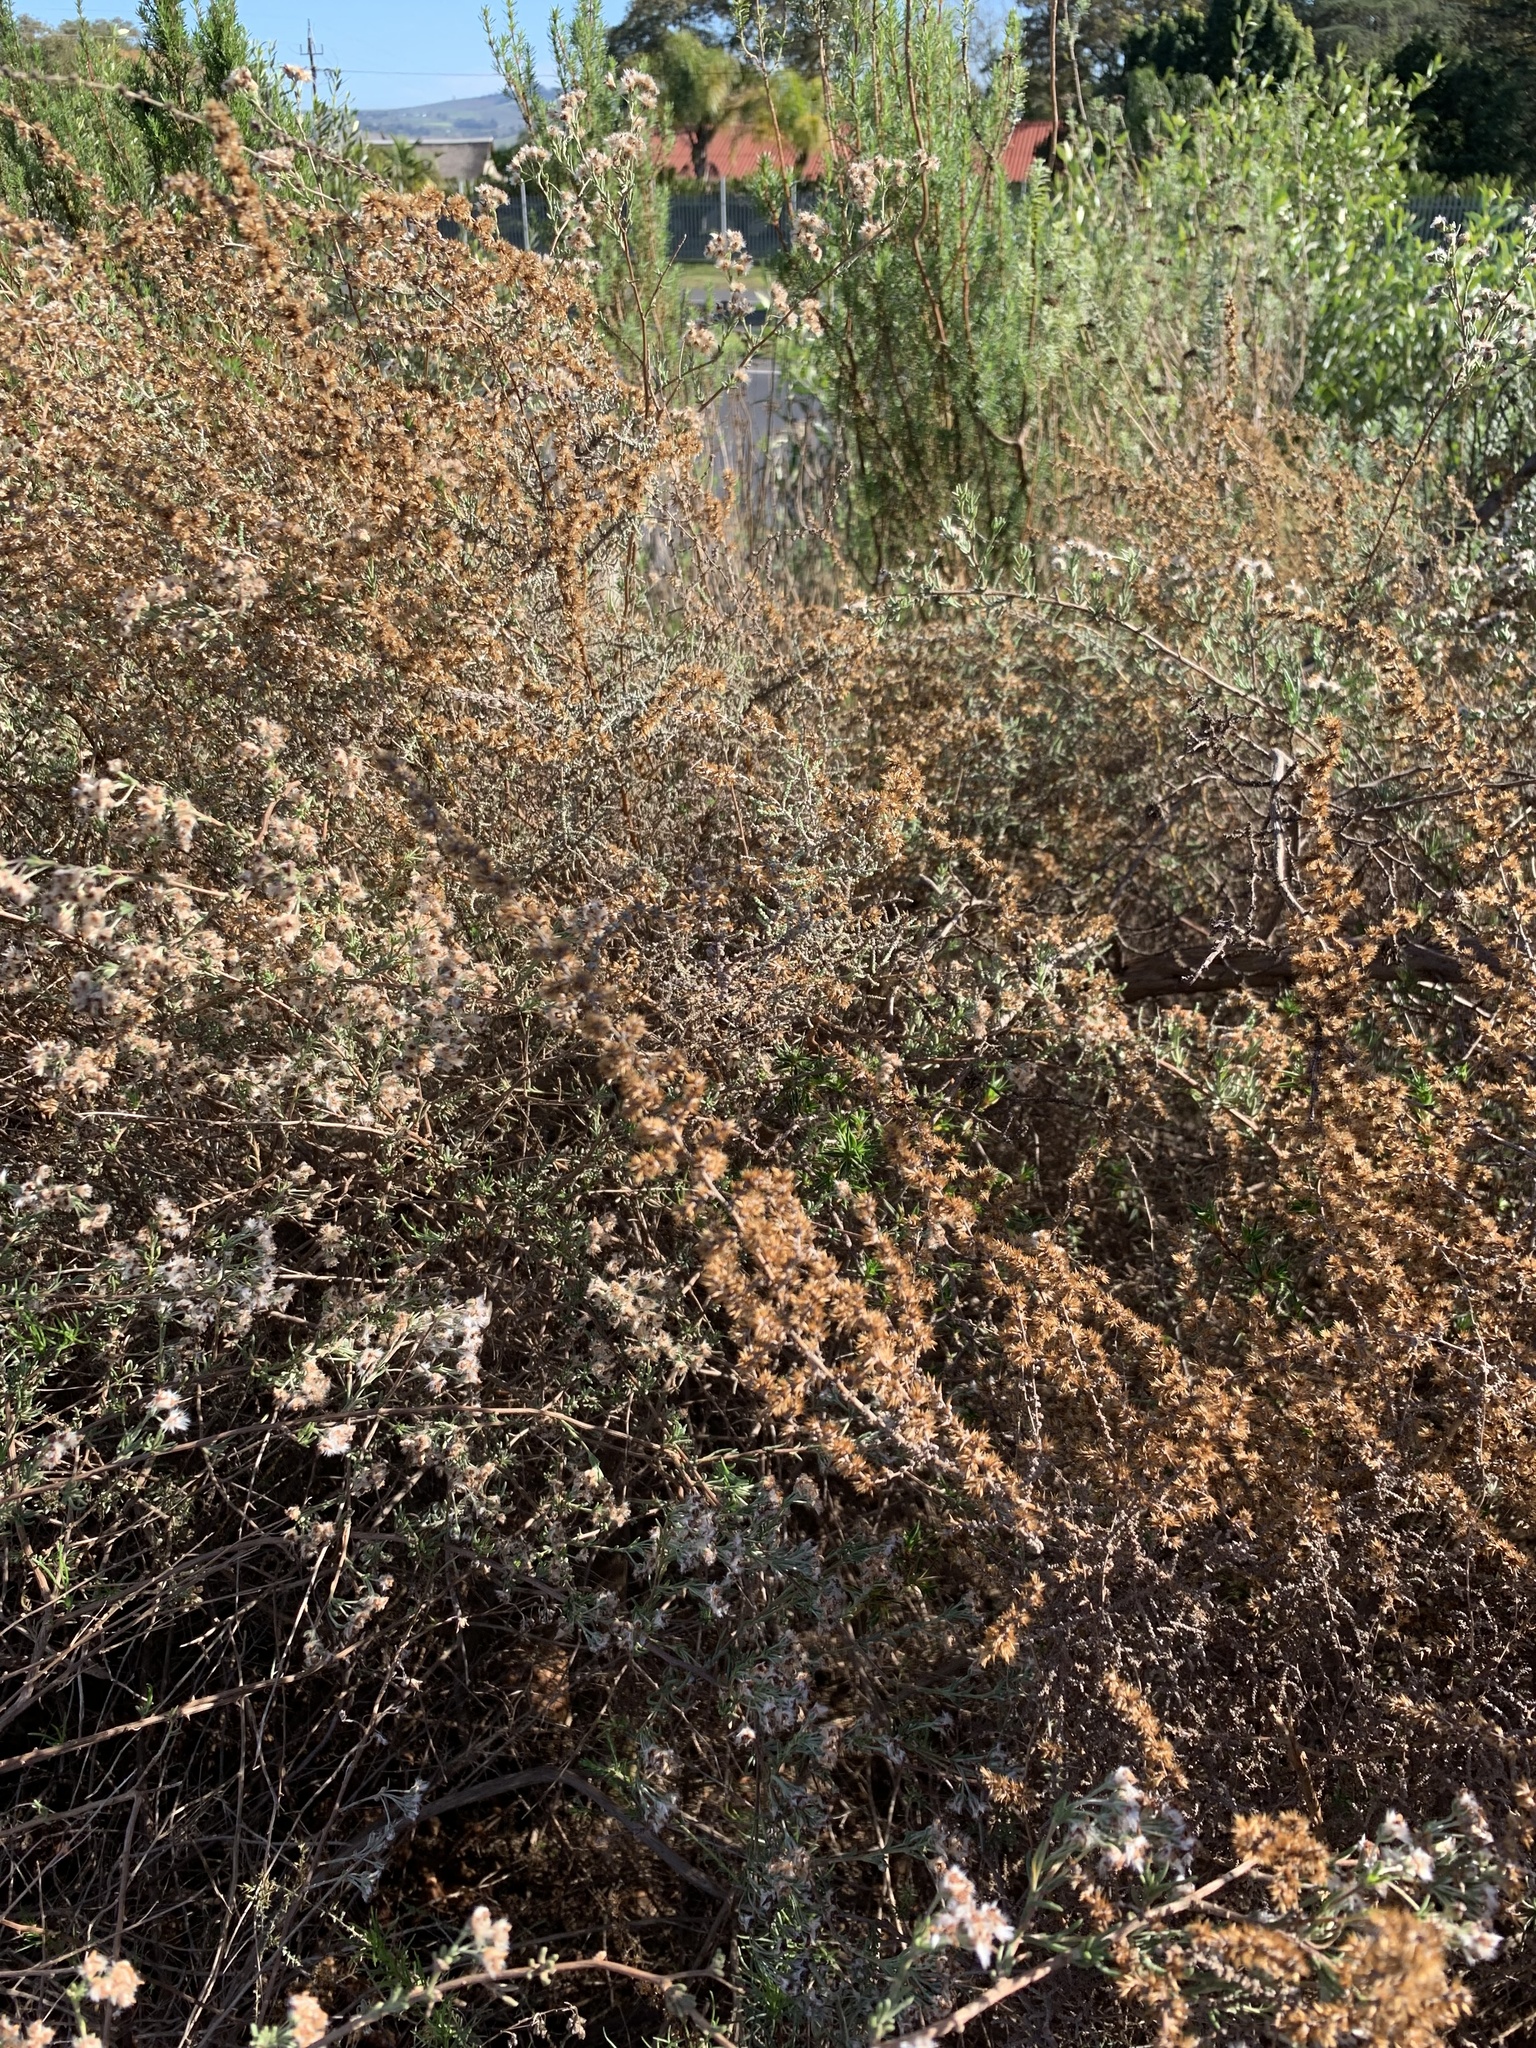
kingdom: Plantae
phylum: Tracheophyta
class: Magnoliopsida
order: Asterales
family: Asteraceae
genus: Seriphium
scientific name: Seriphium plumosum
